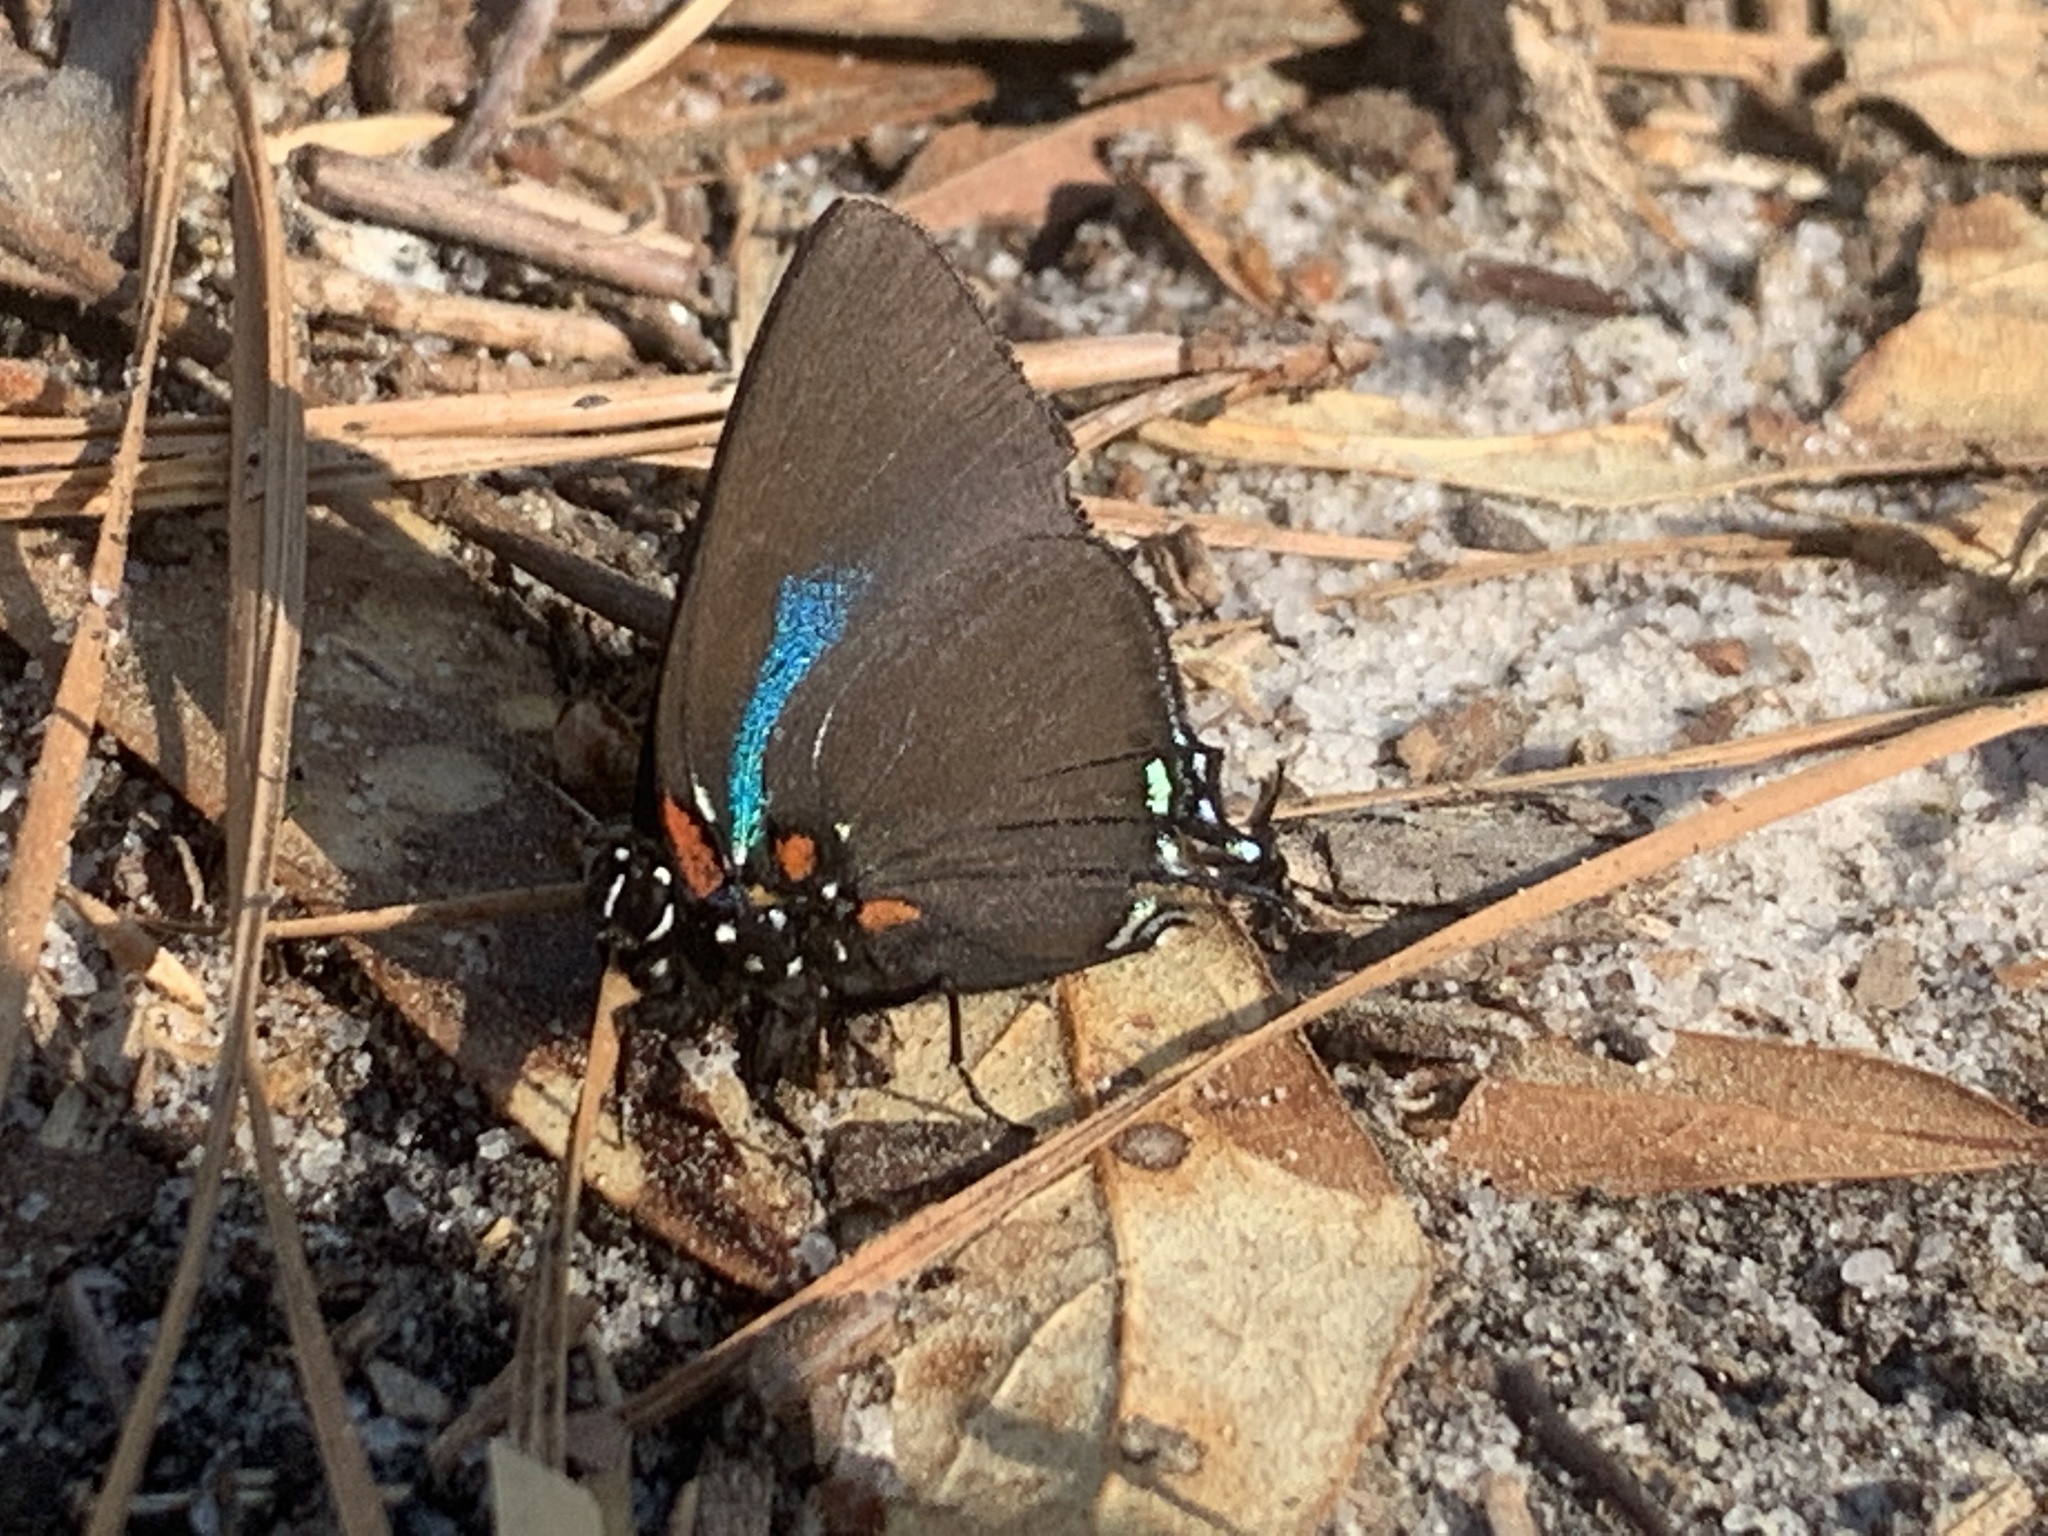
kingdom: Animalia
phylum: Arthropoda
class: Insecta
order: Lepidoptera
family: Lycaenidae
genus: Atlides
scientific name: Atlides halesus
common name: Great purple hairstreak
